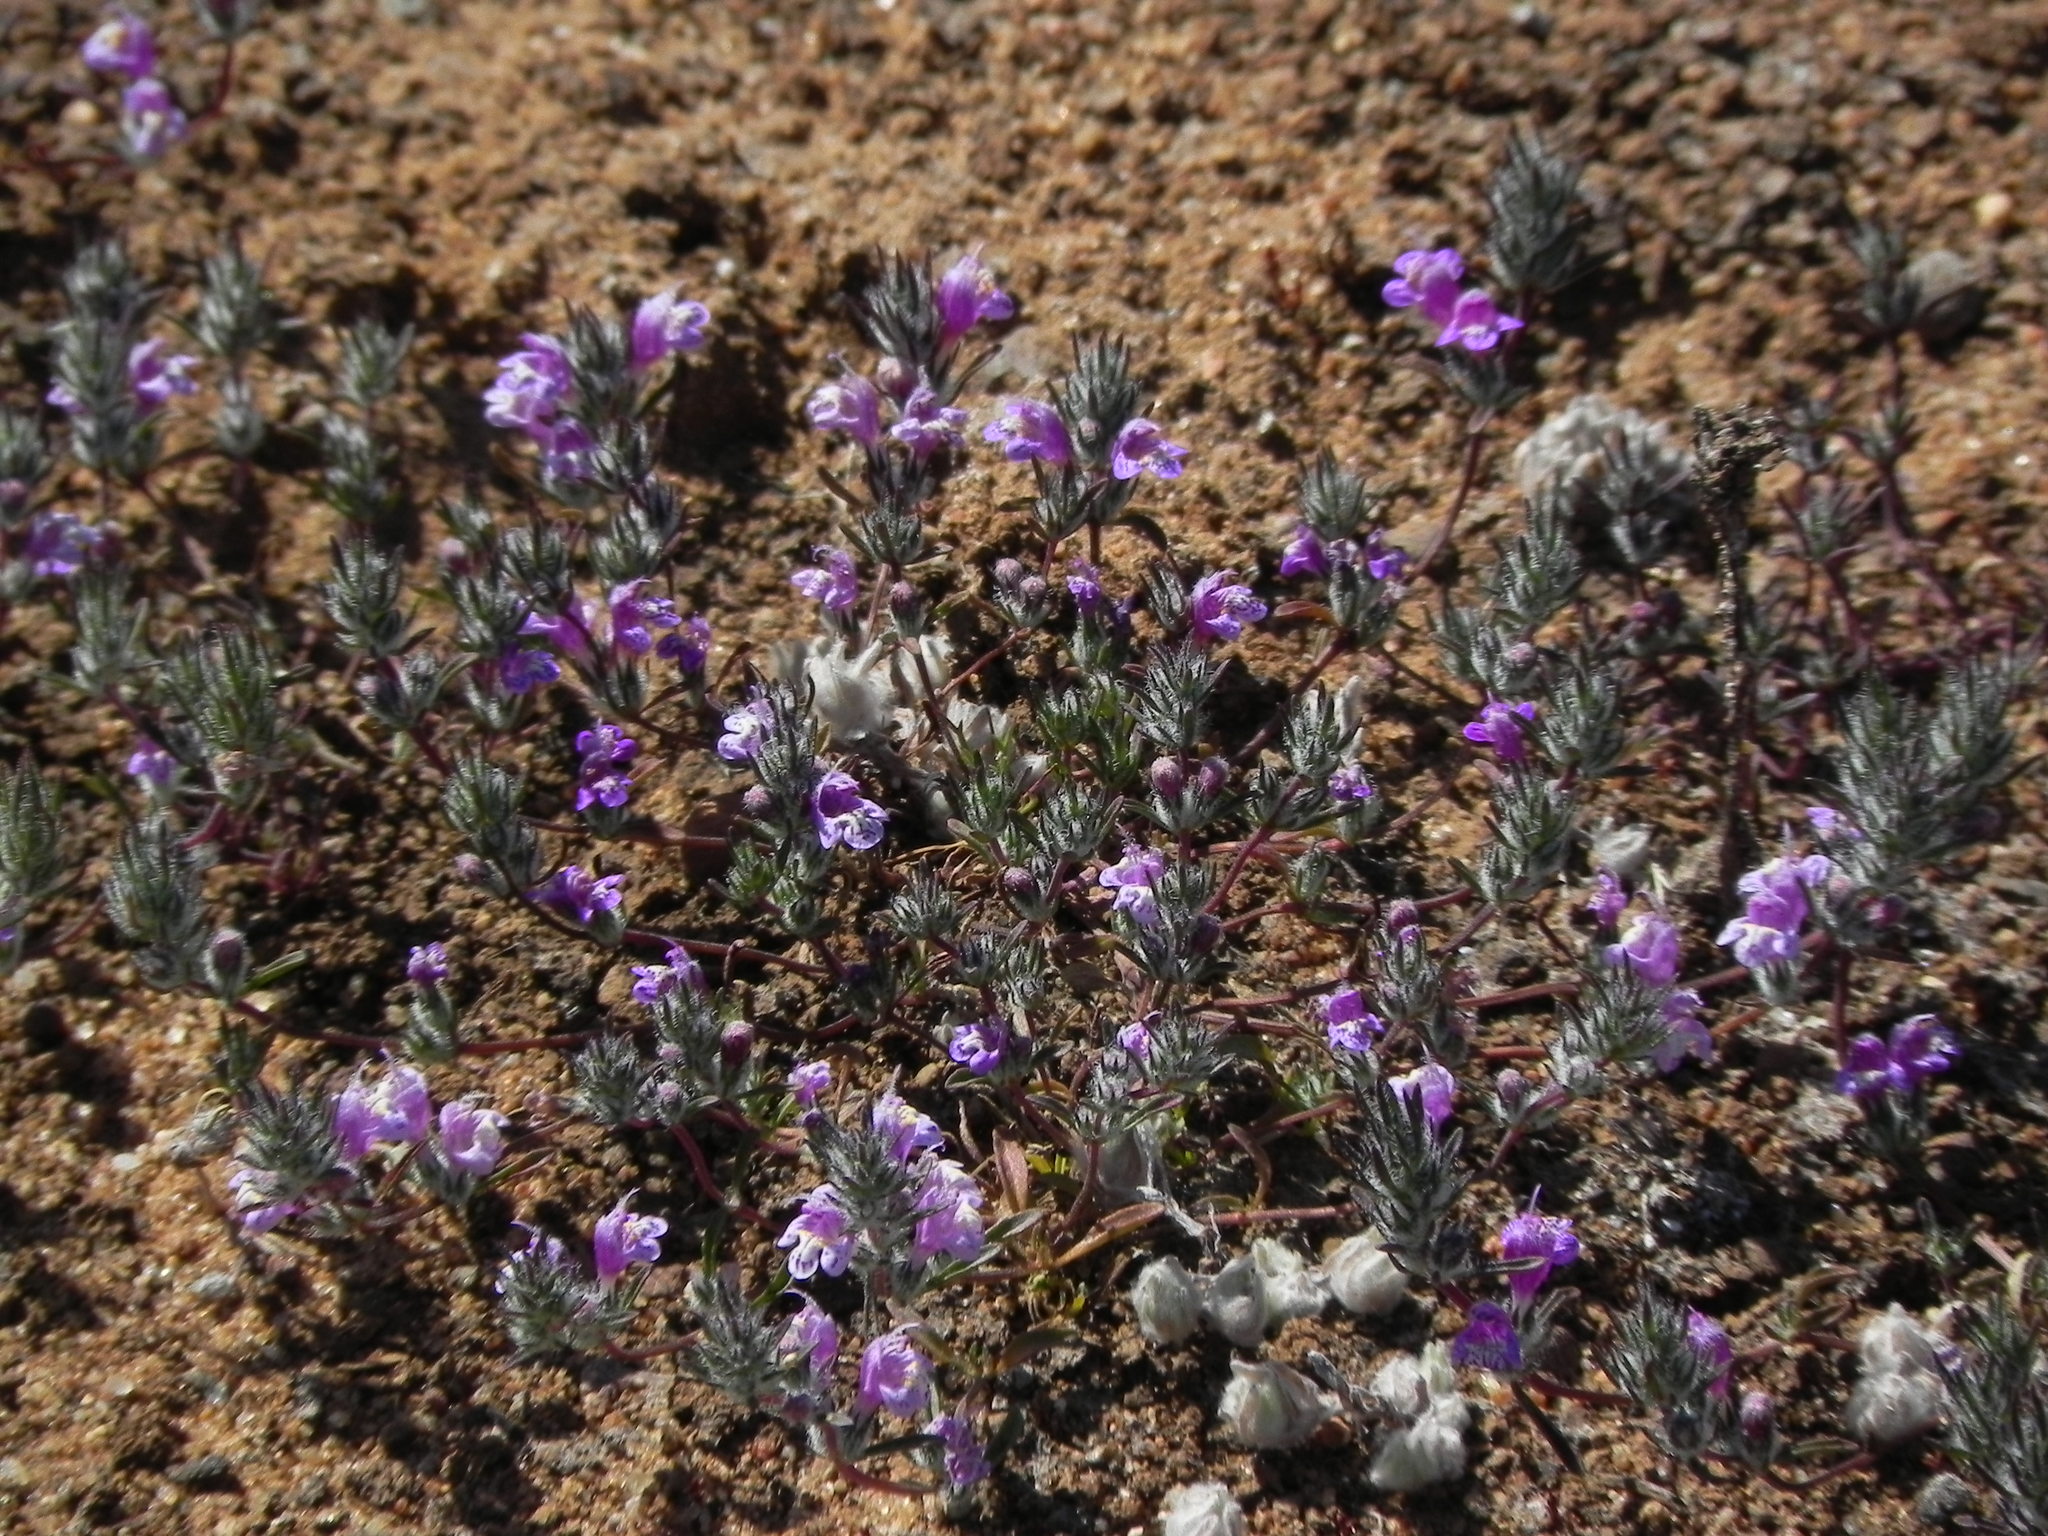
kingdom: Plantae
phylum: Tracheophyta
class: Magnoliopsida
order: Lamiales
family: Lamiaceae
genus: Pogogyne
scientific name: Pogogyne abramsii
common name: San diego mesa-mint
